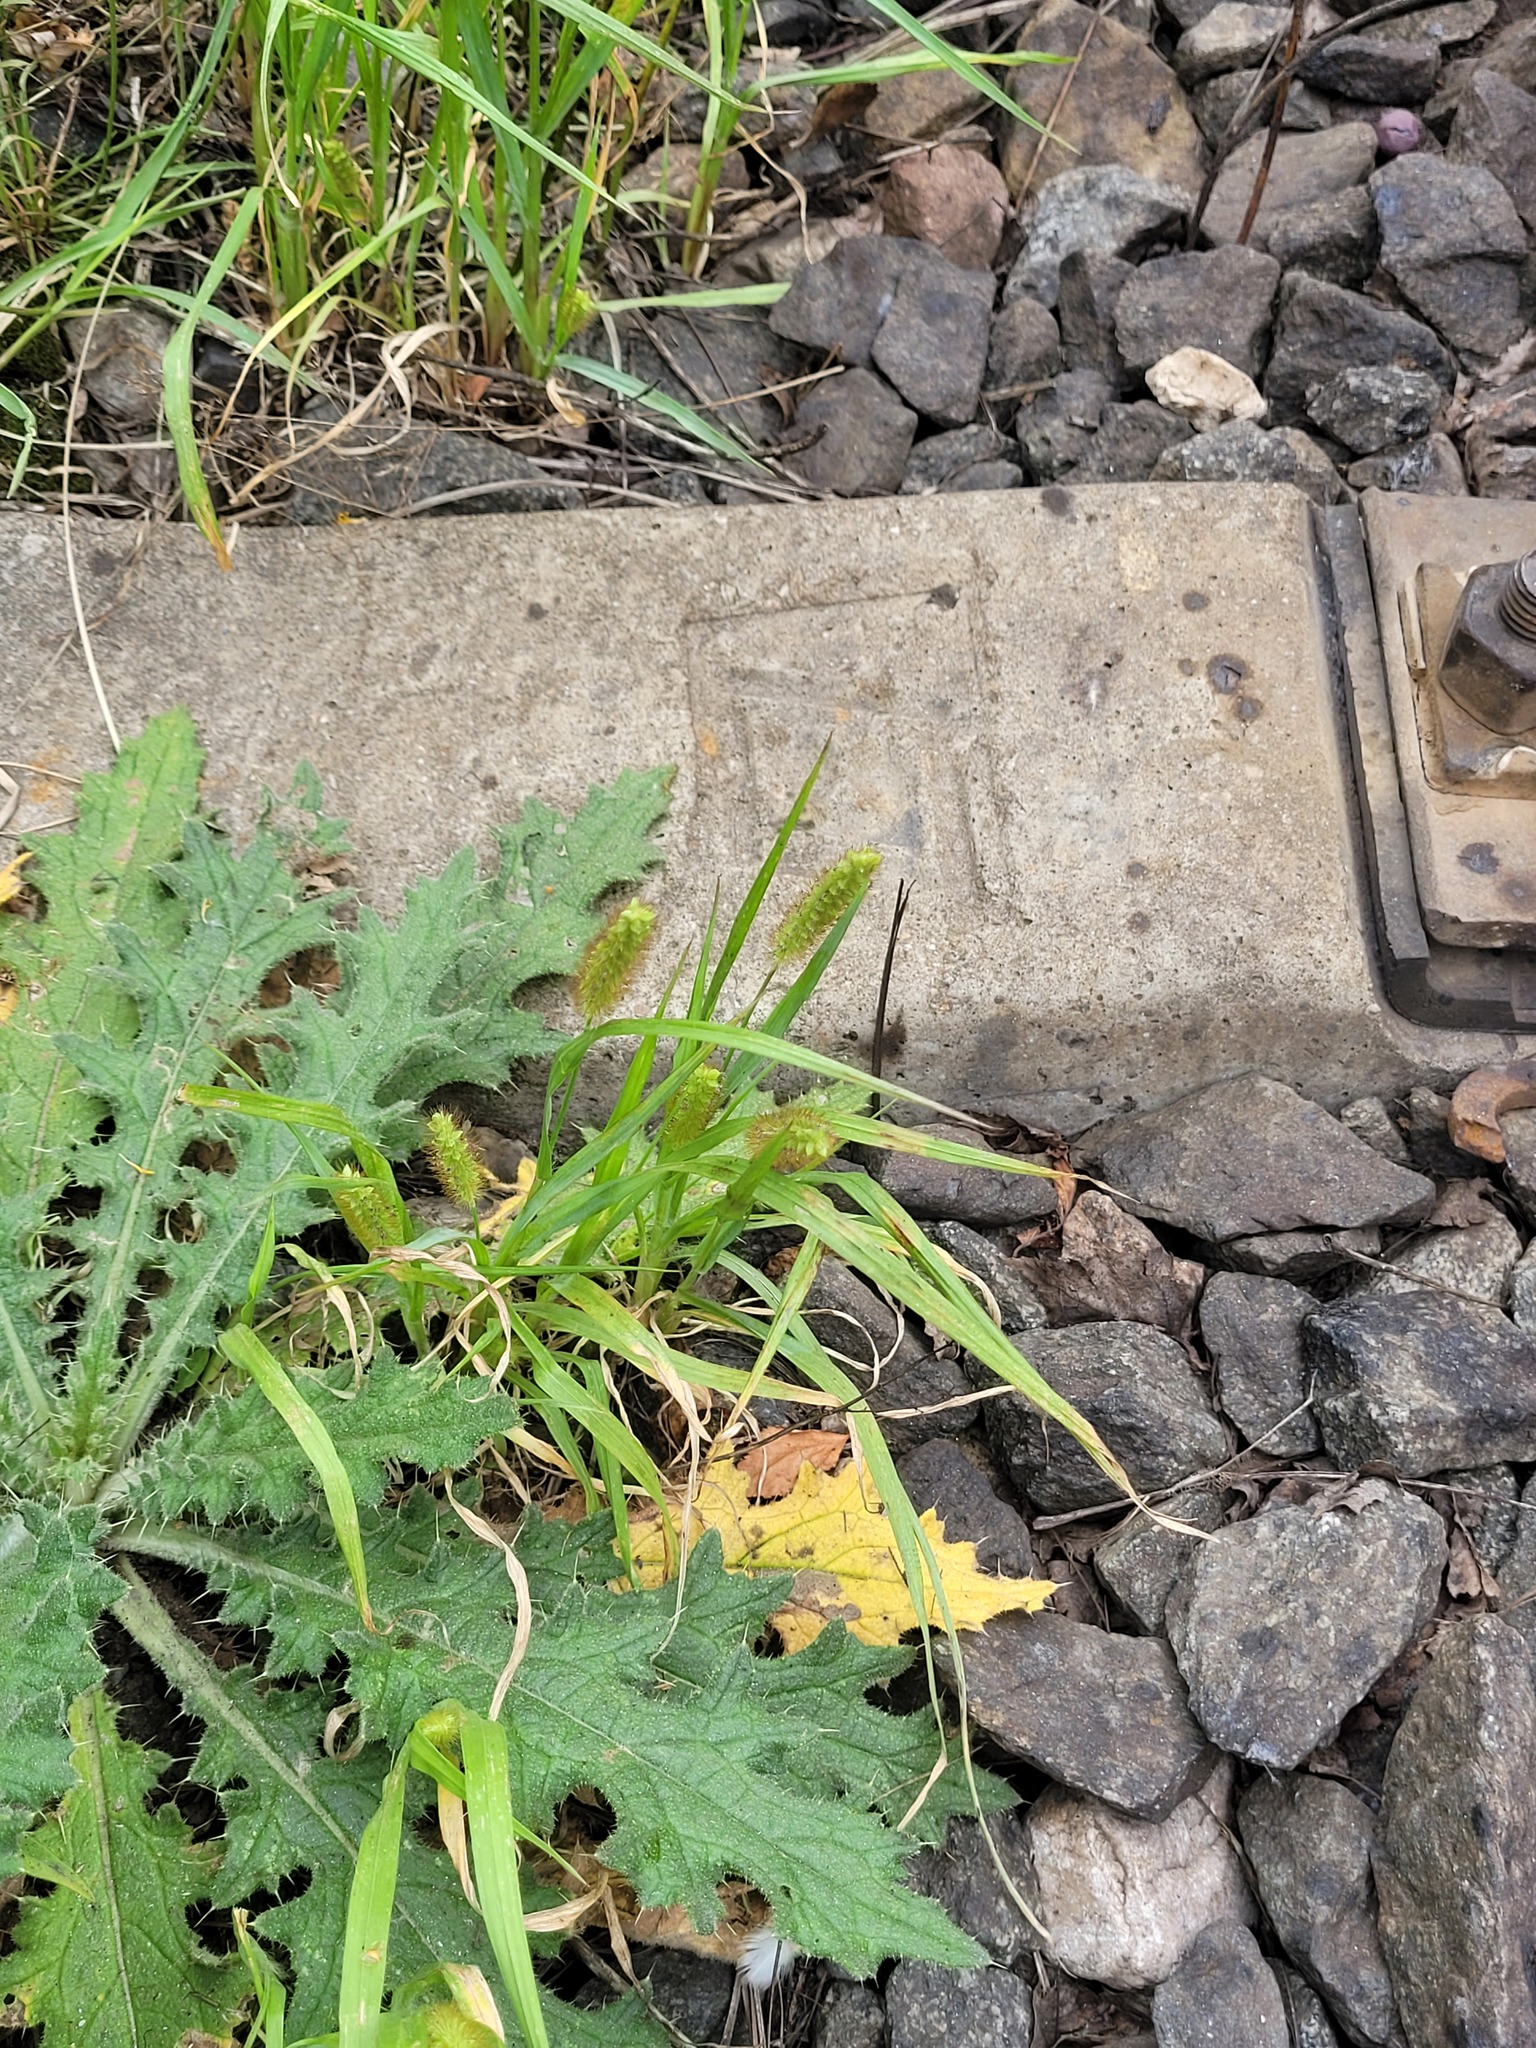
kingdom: Plantae
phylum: Tracheophyta
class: Liliopsida
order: Poales
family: Poaceae
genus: Setaria
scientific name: Setaria pumila
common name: Yellow bristle-grass
